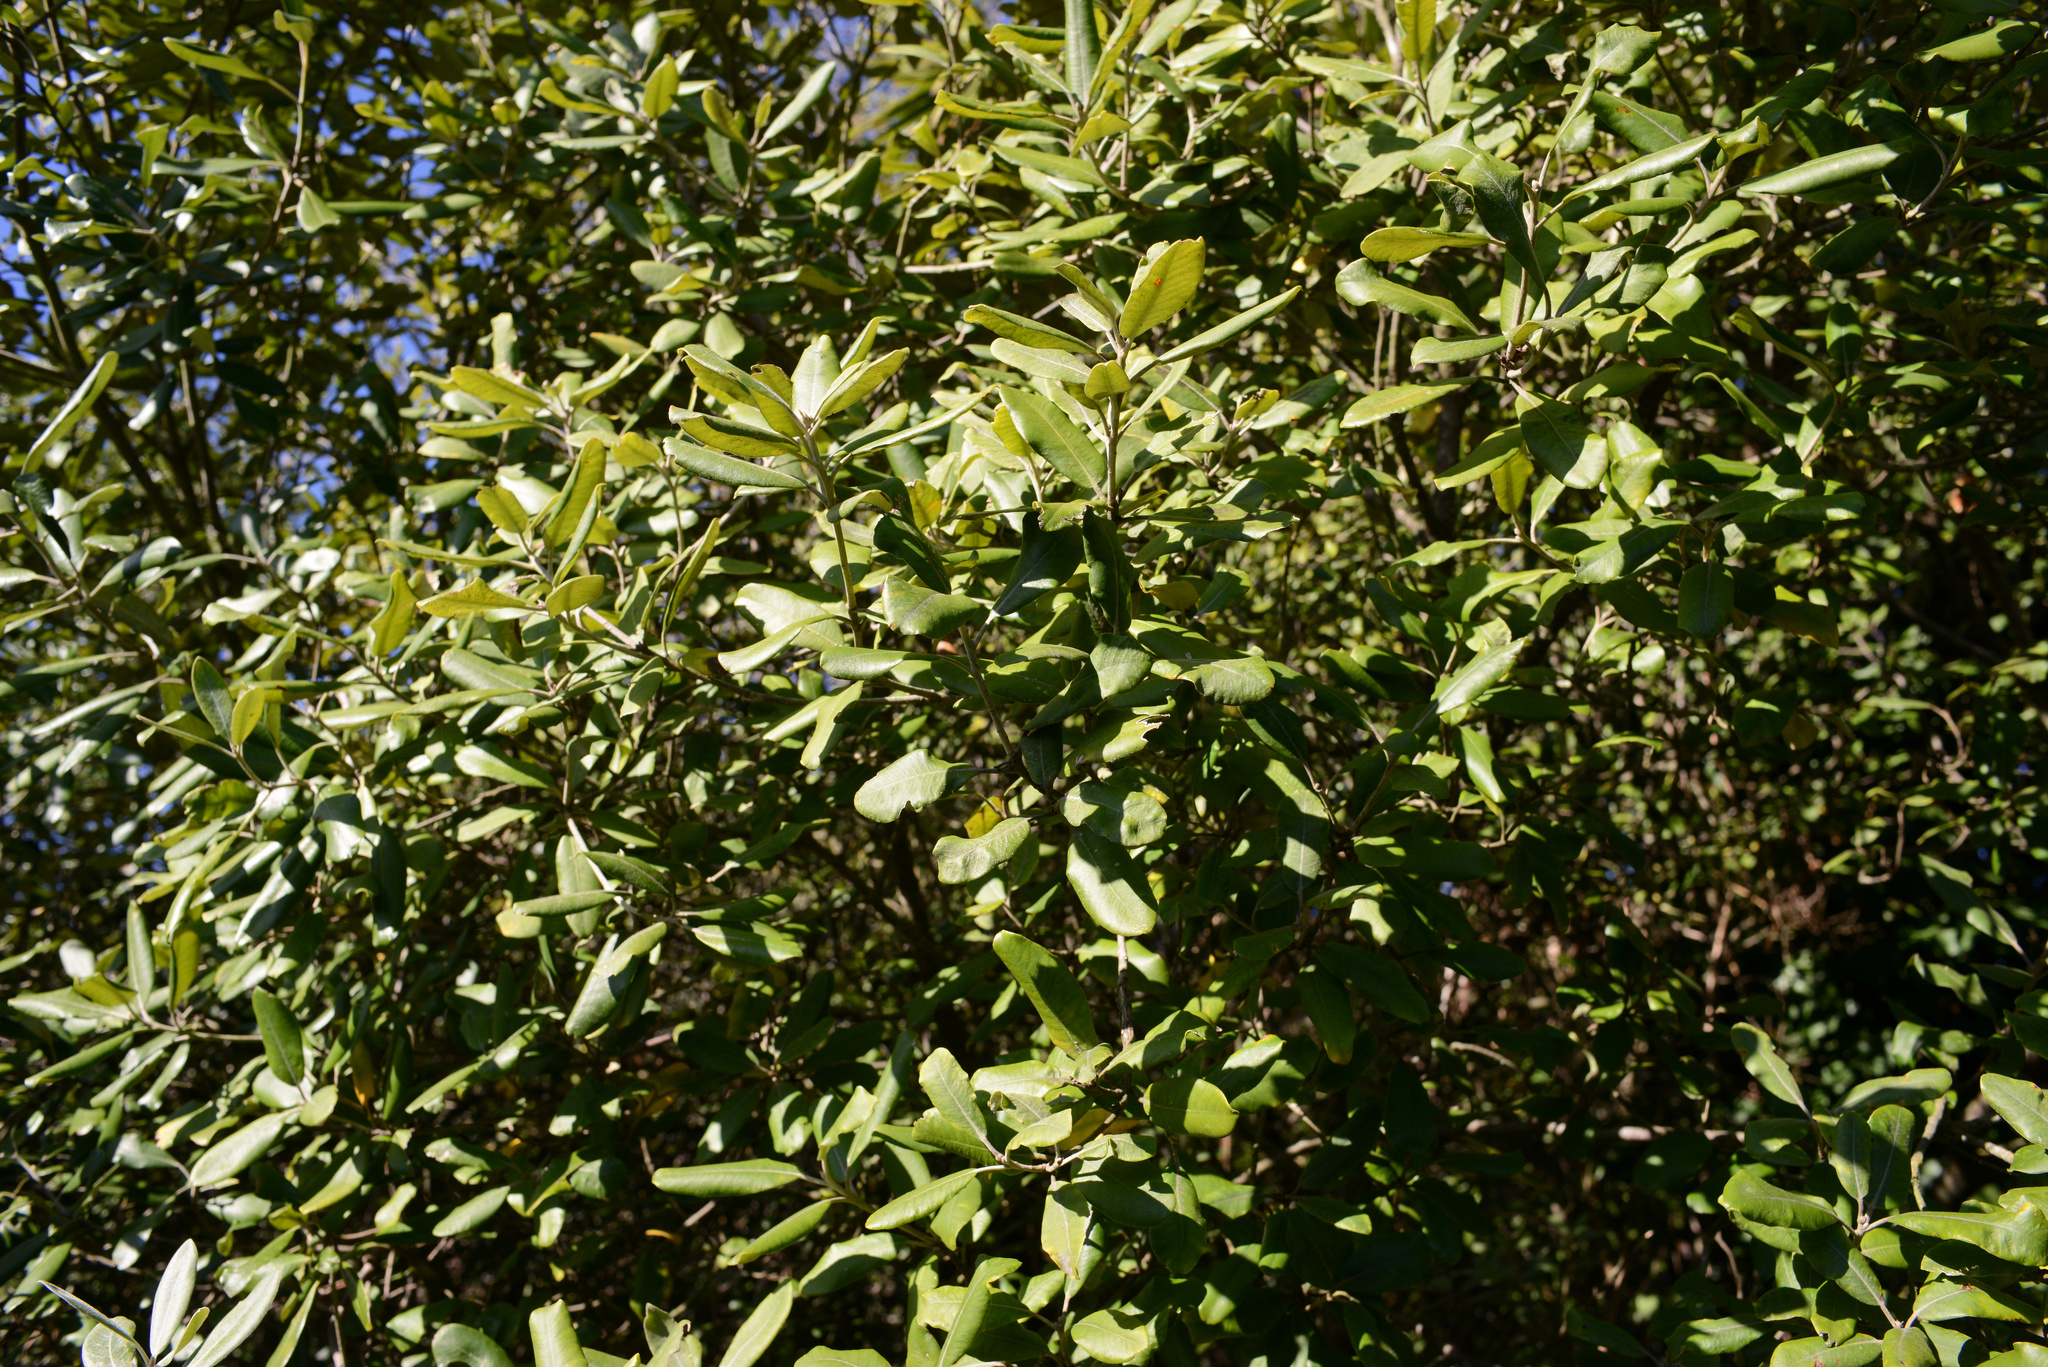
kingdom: Plantae
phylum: Tracheophyta
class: Magnoliopsida
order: Apiales
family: Pittosporaceae
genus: Pittosporum
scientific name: Pittosporum crassifolium
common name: Karo
